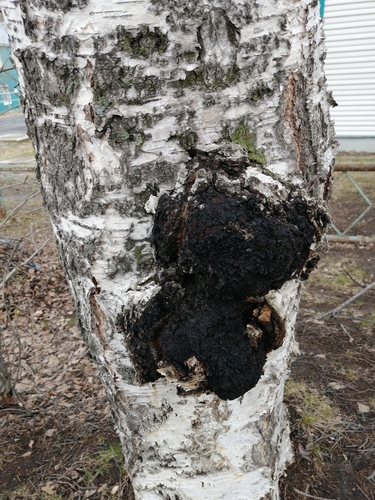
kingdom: Fungi
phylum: Basidiomycota
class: Agaricomycetes
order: Hymenochaetales
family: Hymenochaetaceae
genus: Inonotus
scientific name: Inonotus obliquus
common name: Chaga
